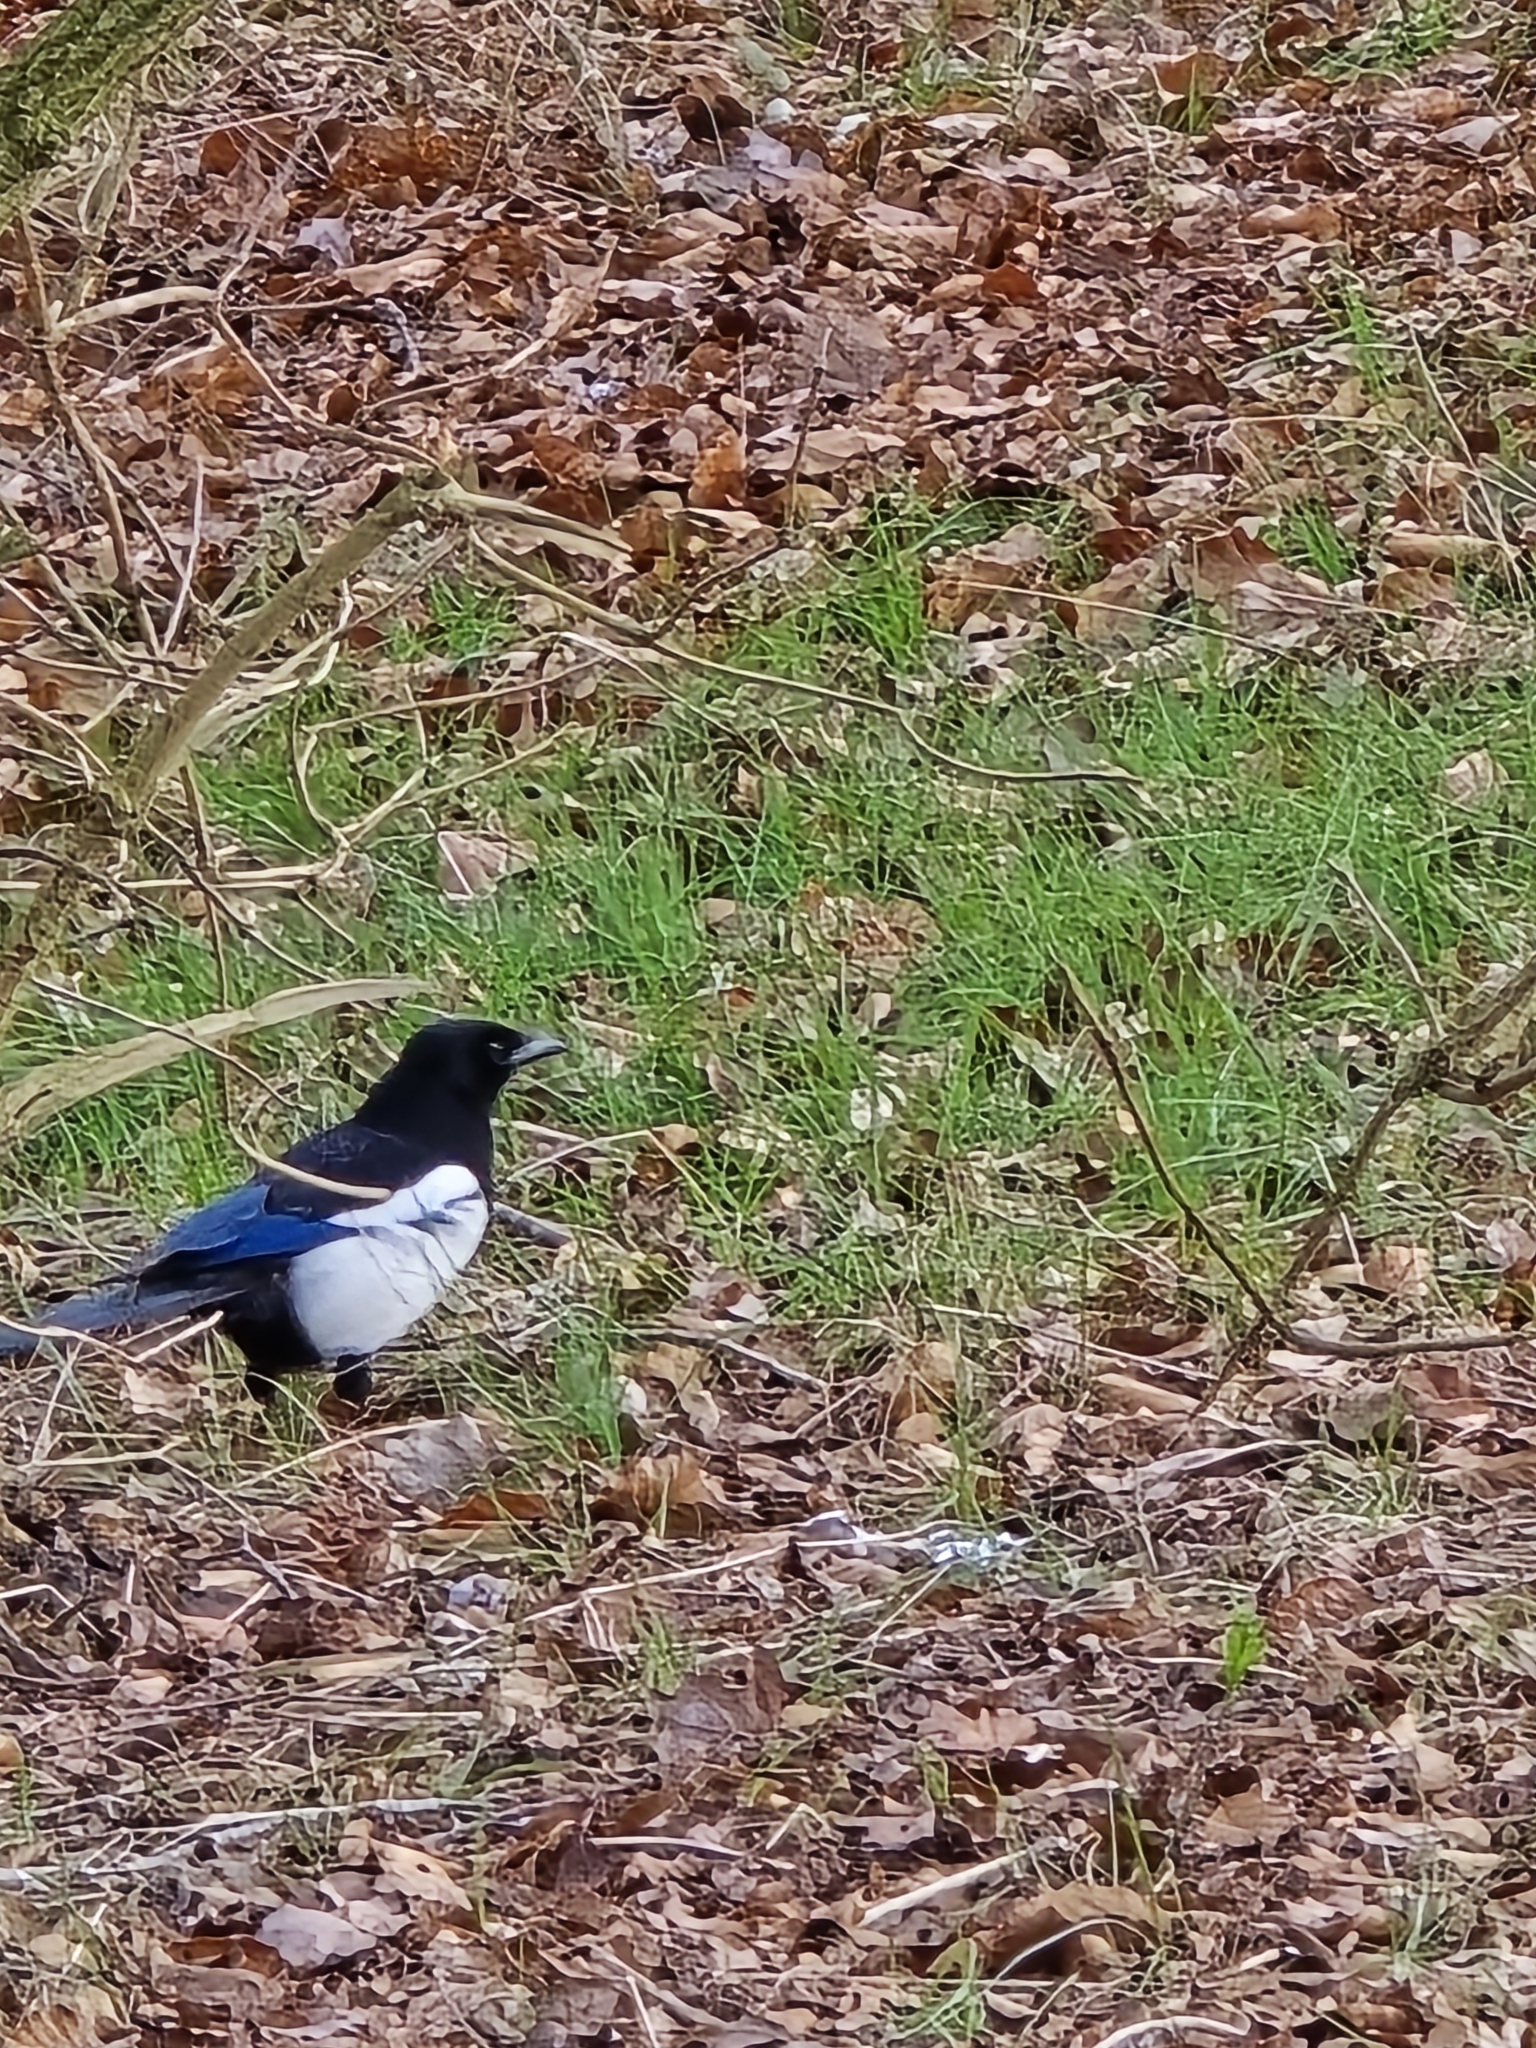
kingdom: Animalia
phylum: Chordata
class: Aves
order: Passeriformes
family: Corvidae
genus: Pica
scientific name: Pica pica
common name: Eurasian magpie
